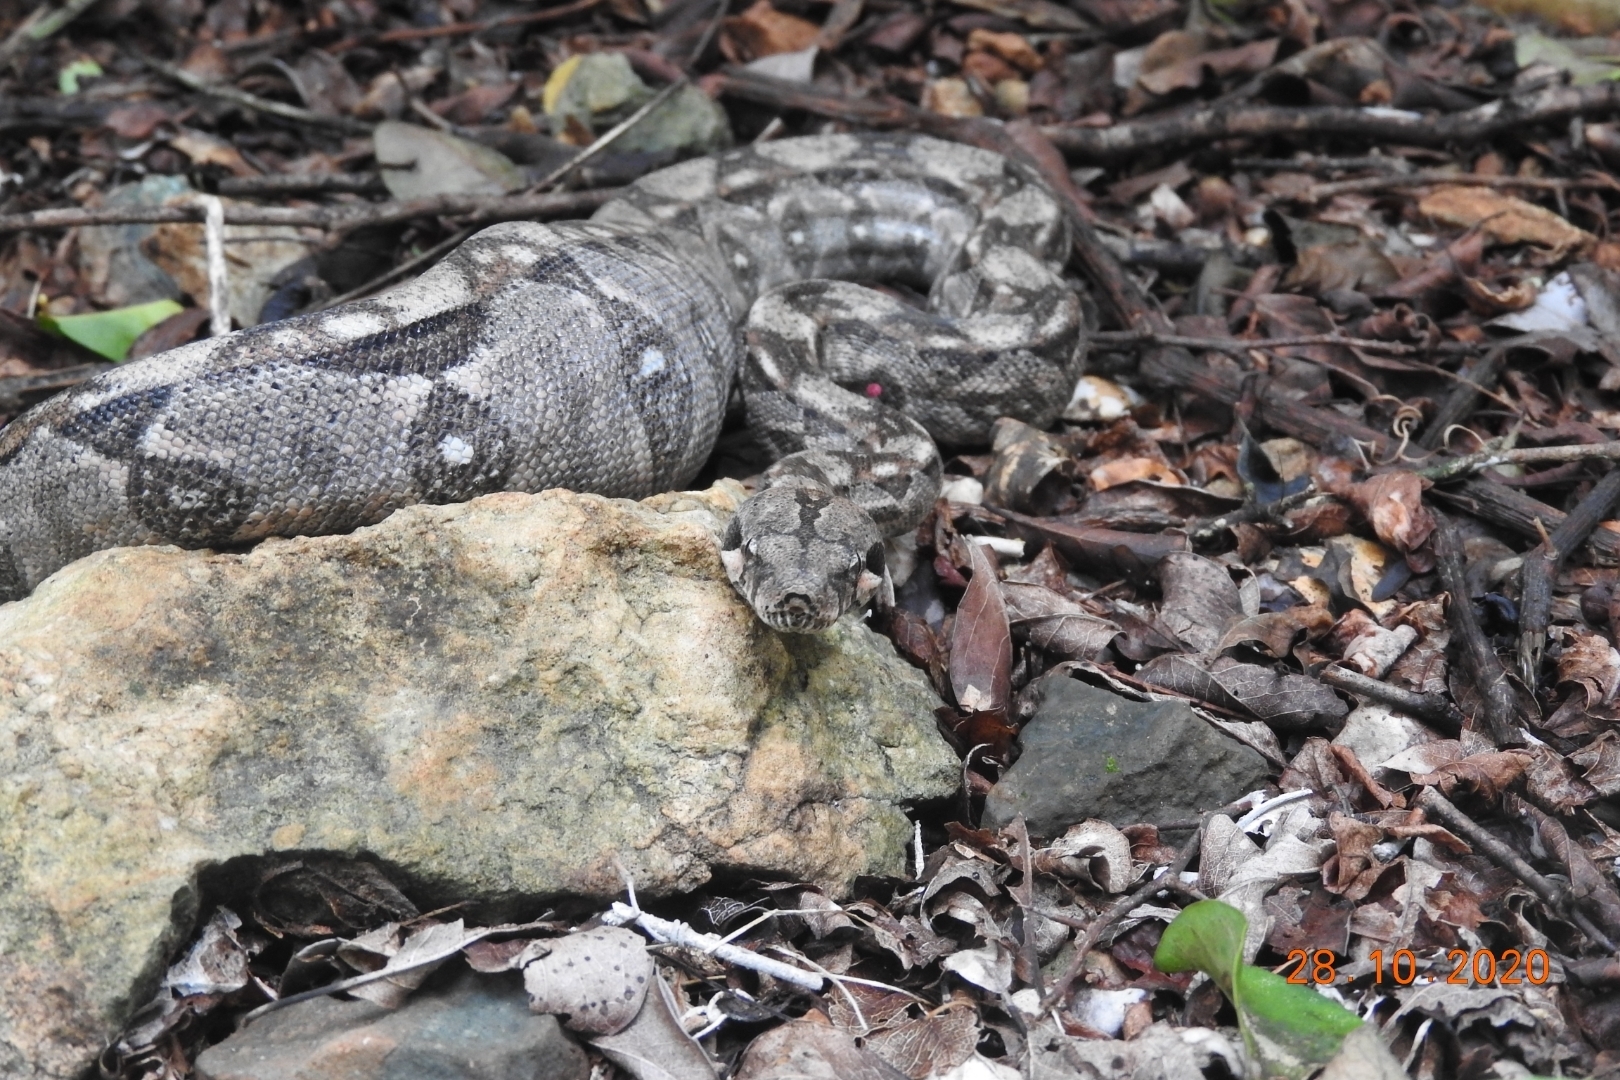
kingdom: Animalia
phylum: Chordata
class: Squamata
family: Boidae
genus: Boa
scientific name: Boa imperator
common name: Central american boa
